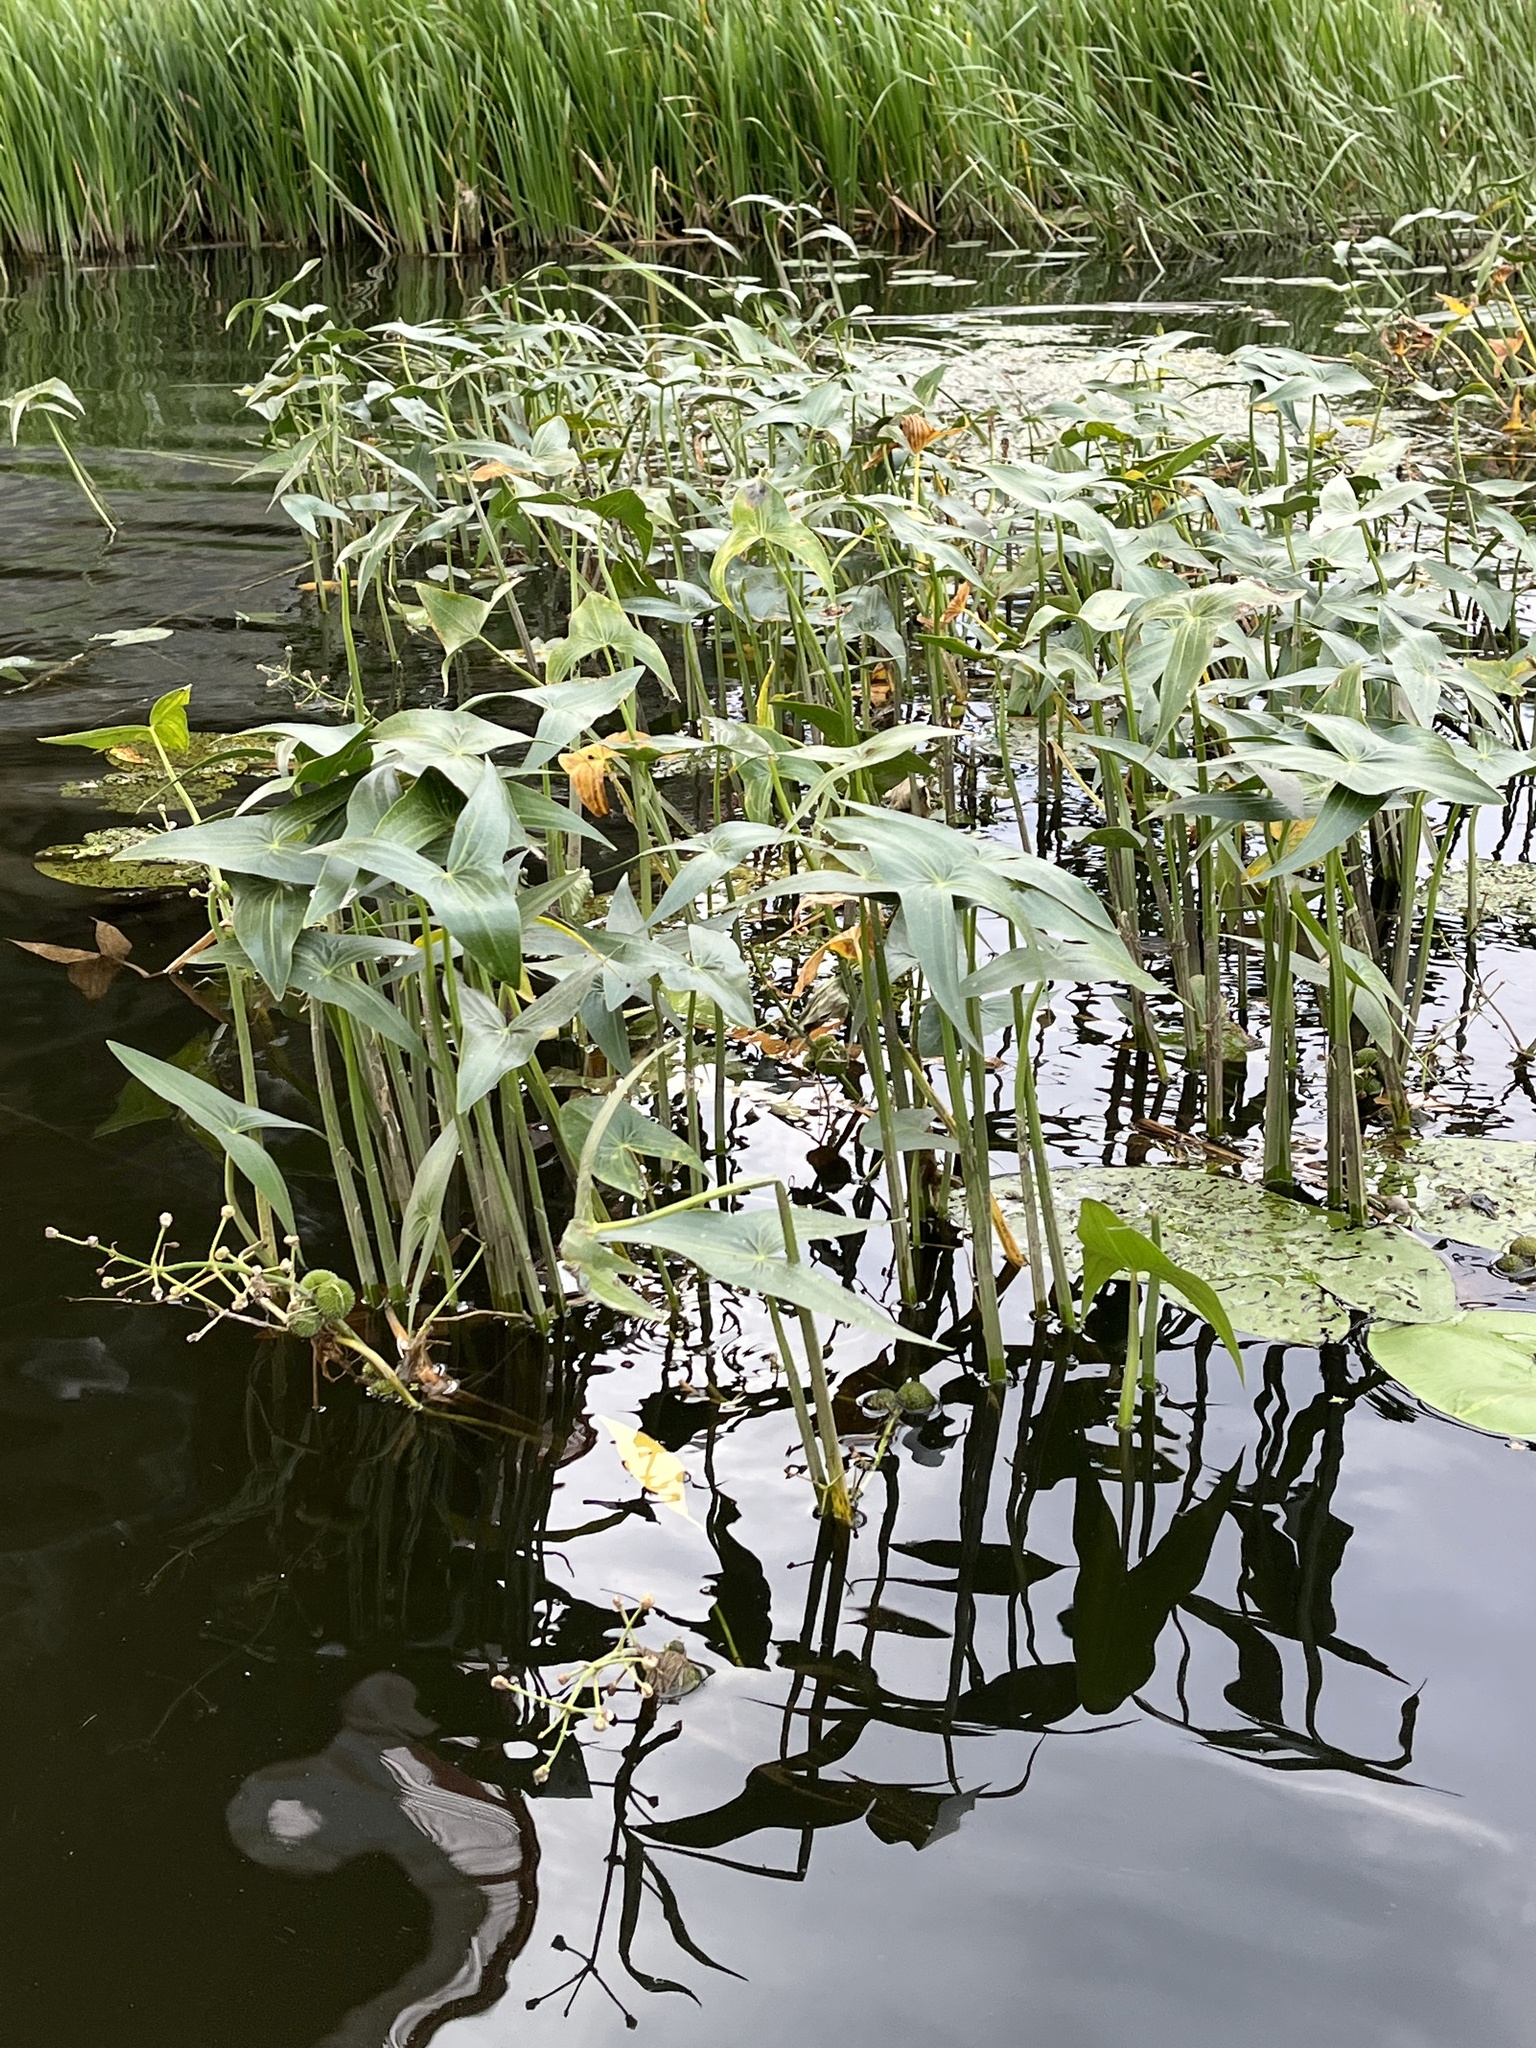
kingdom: Plantae
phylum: Tracheophyta
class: Liliopsida
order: Alismatales
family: Alismataceae
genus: Sagittaria
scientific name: Sagittaria sagittifolia
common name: Arrowhead
